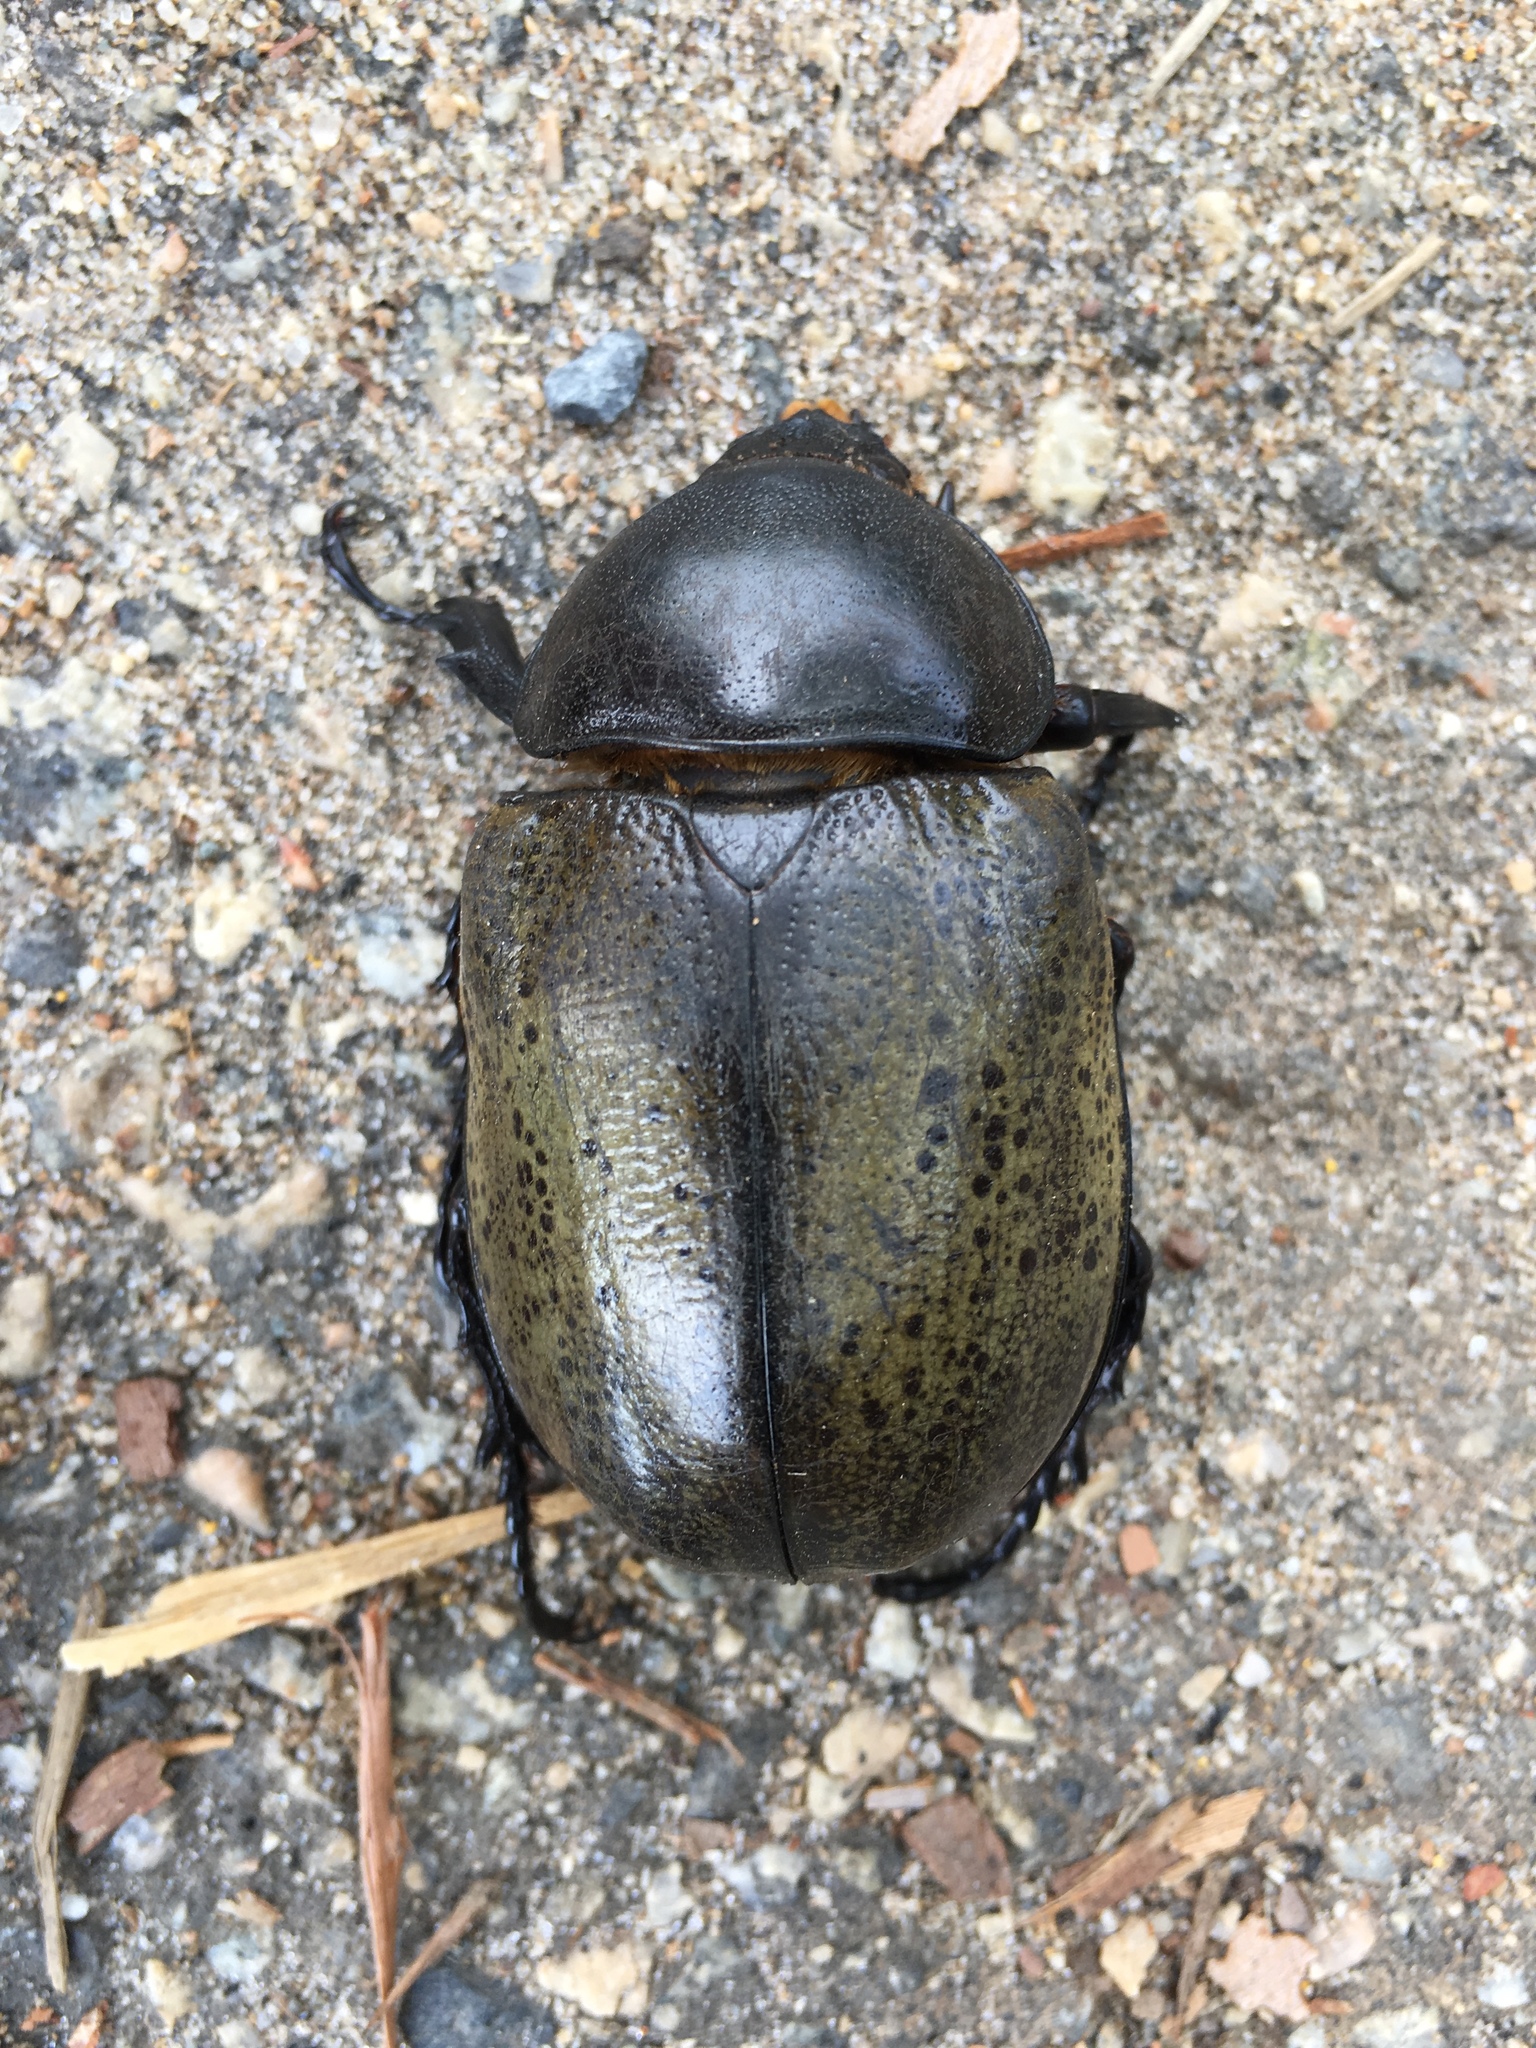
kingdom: Animalia
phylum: Arthropoda
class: Insecta
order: Coleoptera
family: Scarabaeidae
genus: Dynastes
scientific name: Dynastes tityus
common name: Eastern hercules beetle
